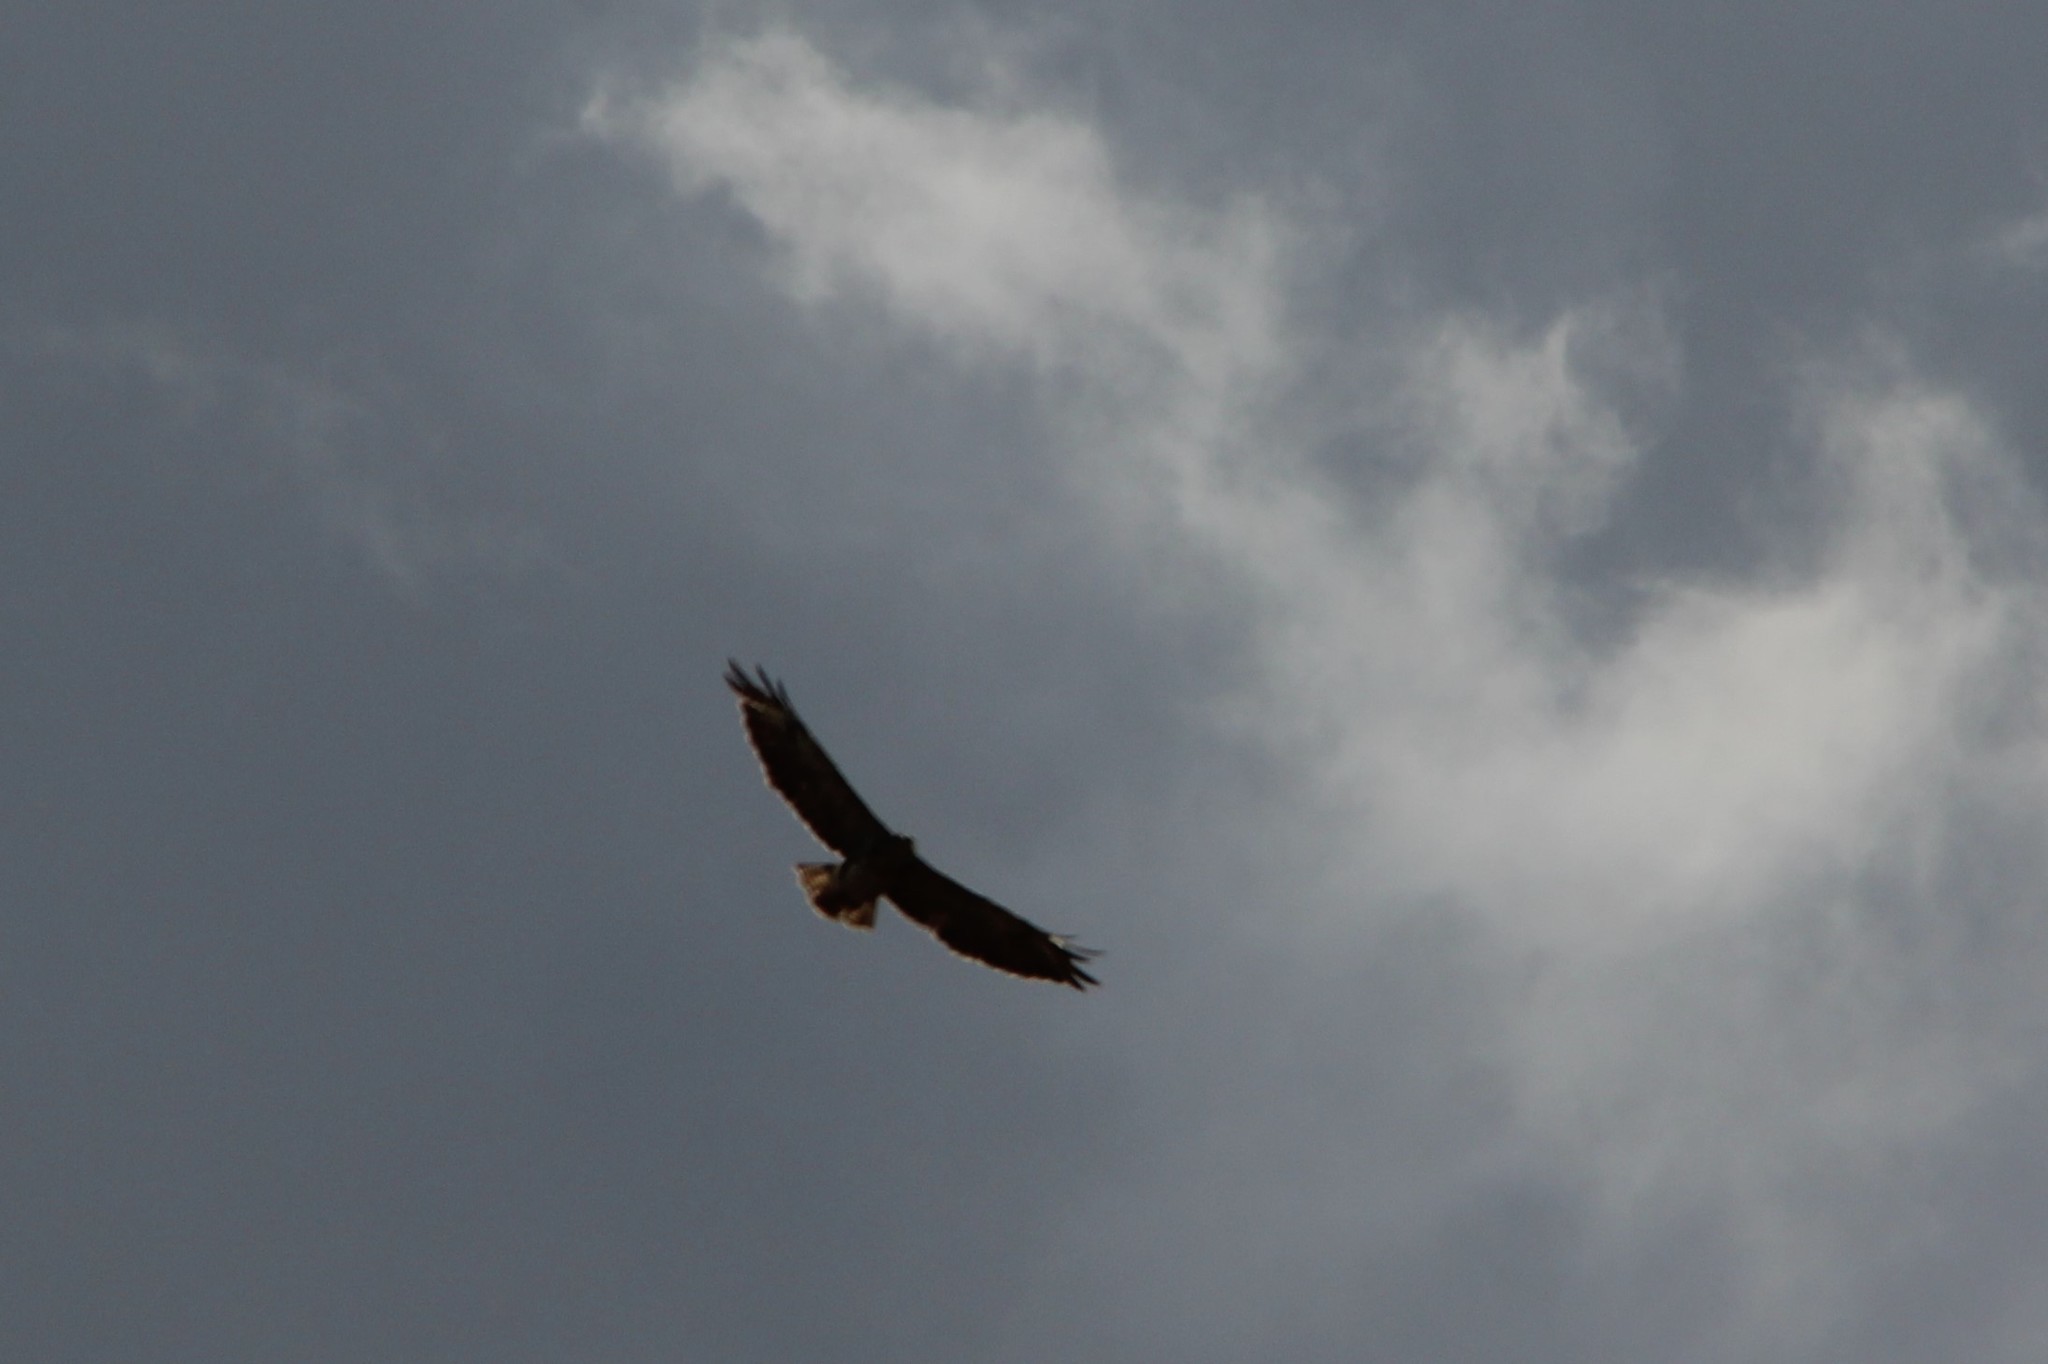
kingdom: Animalia
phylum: Chordata
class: Aves
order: Accipitriformes
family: Accipitridae
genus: Buteo
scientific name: Buteo buteo
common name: Common buzzard
